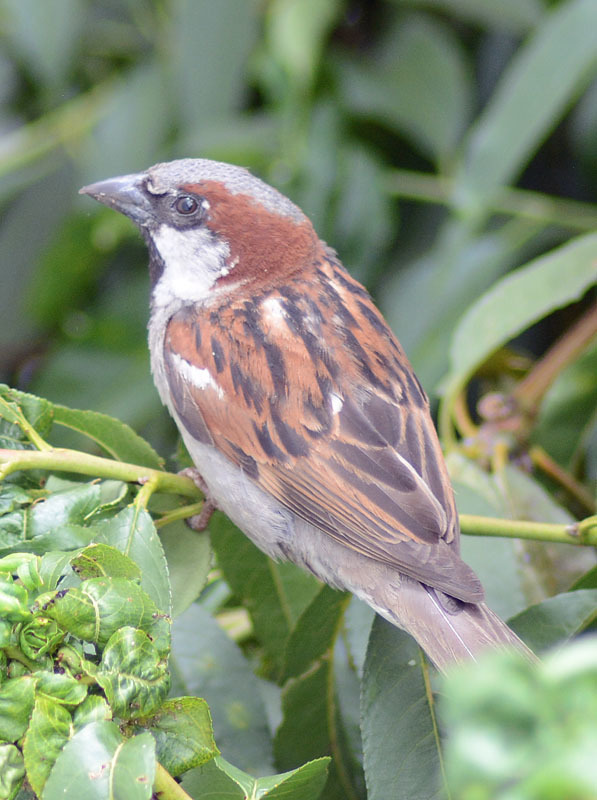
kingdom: Animalia
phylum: Chordata
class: Aves
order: Passeriformes
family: Passeridae
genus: Passer
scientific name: Passer domesticus
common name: House sparrow
